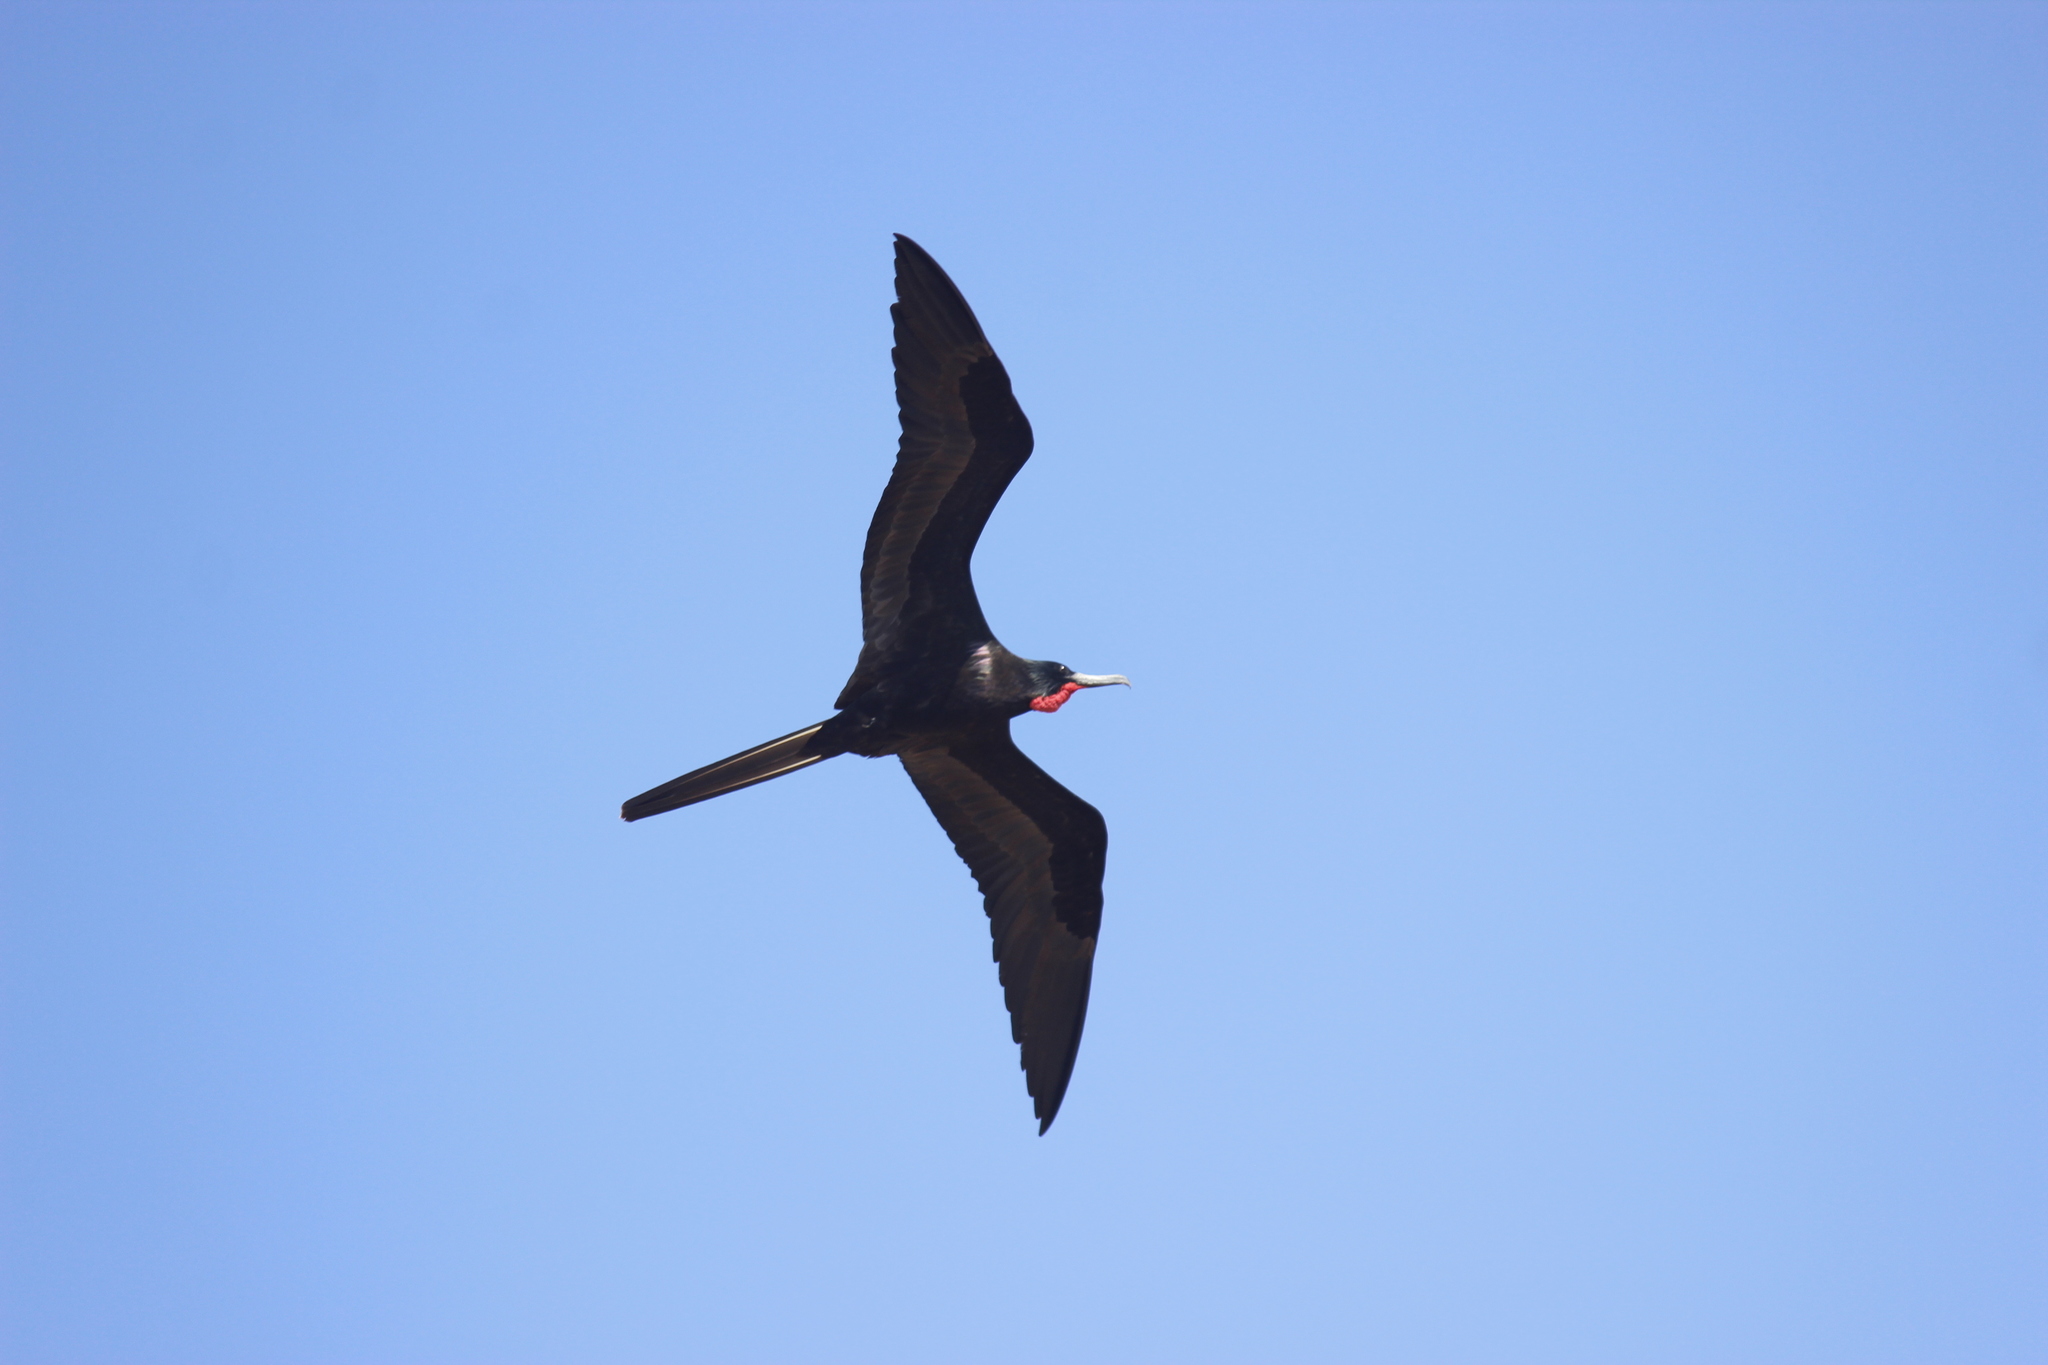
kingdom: Animalia
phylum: Chordata
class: Aves
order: Suliformes
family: Fregatidae
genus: Fregata
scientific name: Fregata magnificens
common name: Magnificent frigatebird
